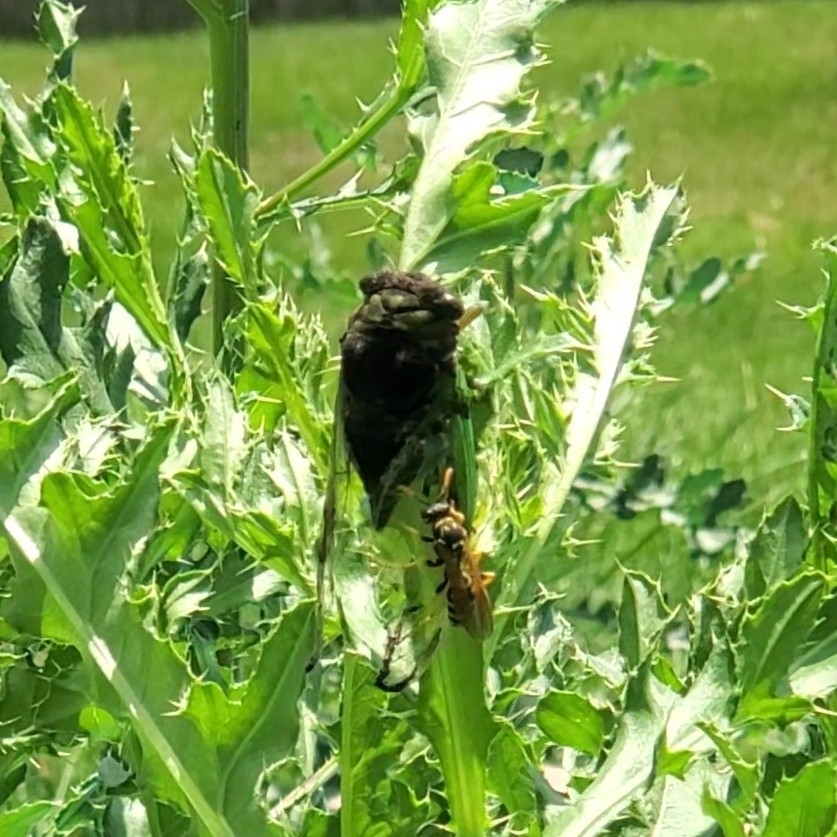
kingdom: Animalia
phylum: Arthropoda
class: Insecta
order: Hymenoptera
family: Eumenidae
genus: Polistes
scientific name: Polistes dominula
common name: Paper wasp
